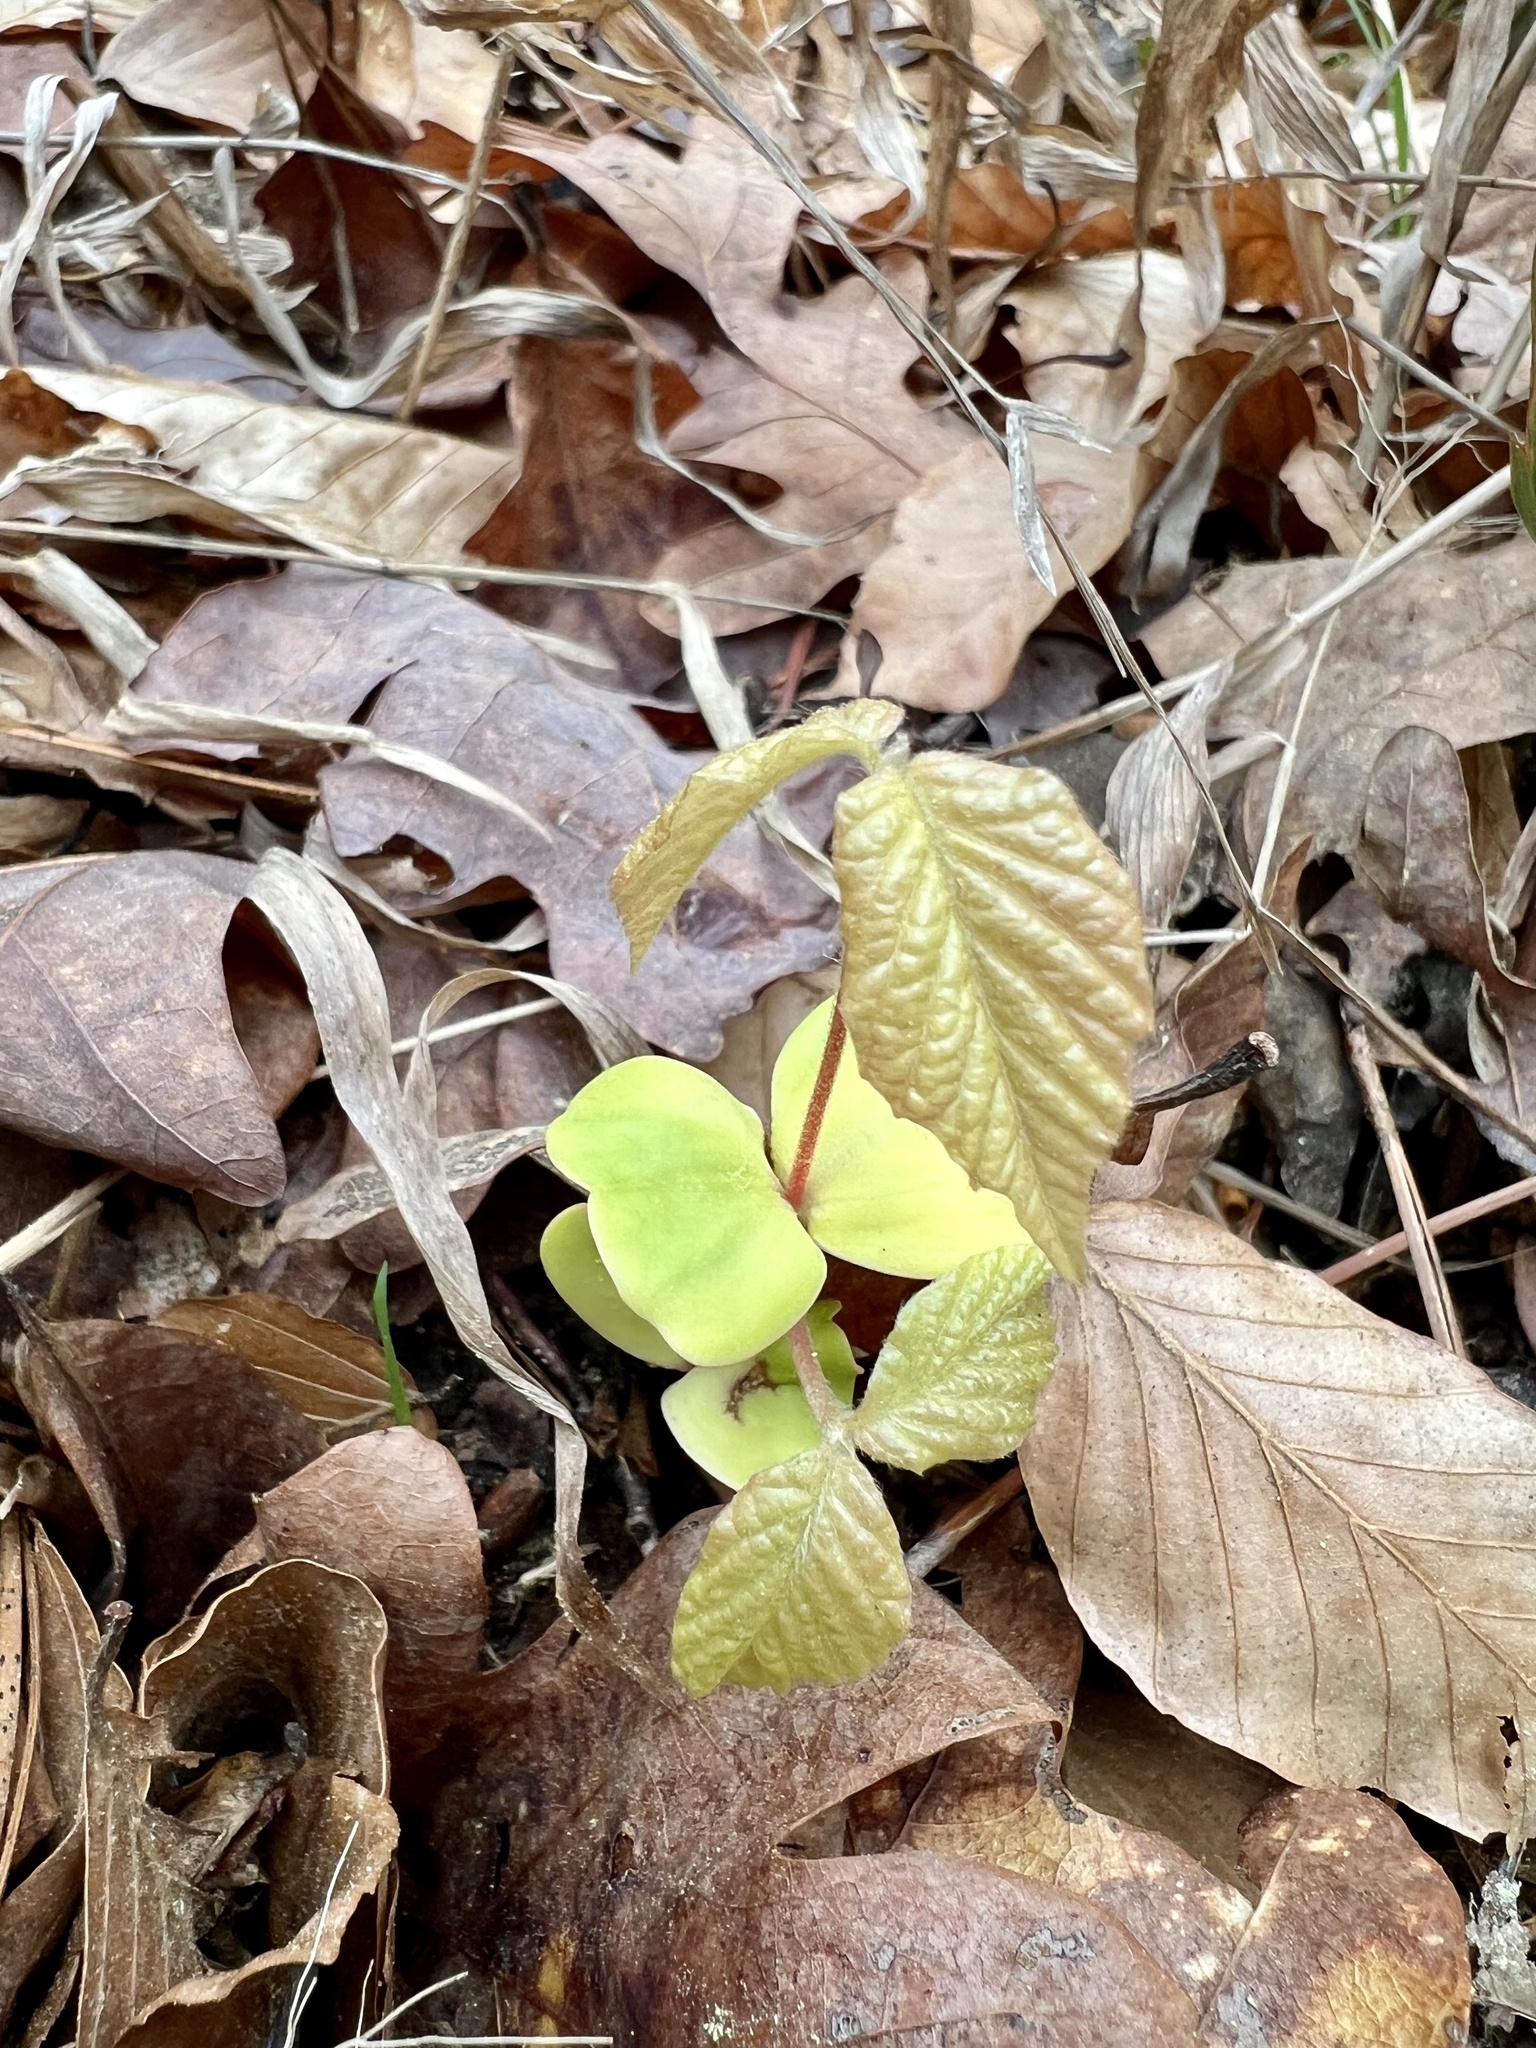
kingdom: Plantae
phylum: Tracheophyta
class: Magnoliopsida
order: Fagales
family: Fagaceae
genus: Fagus
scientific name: Fagus grandifolia
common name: American beech
